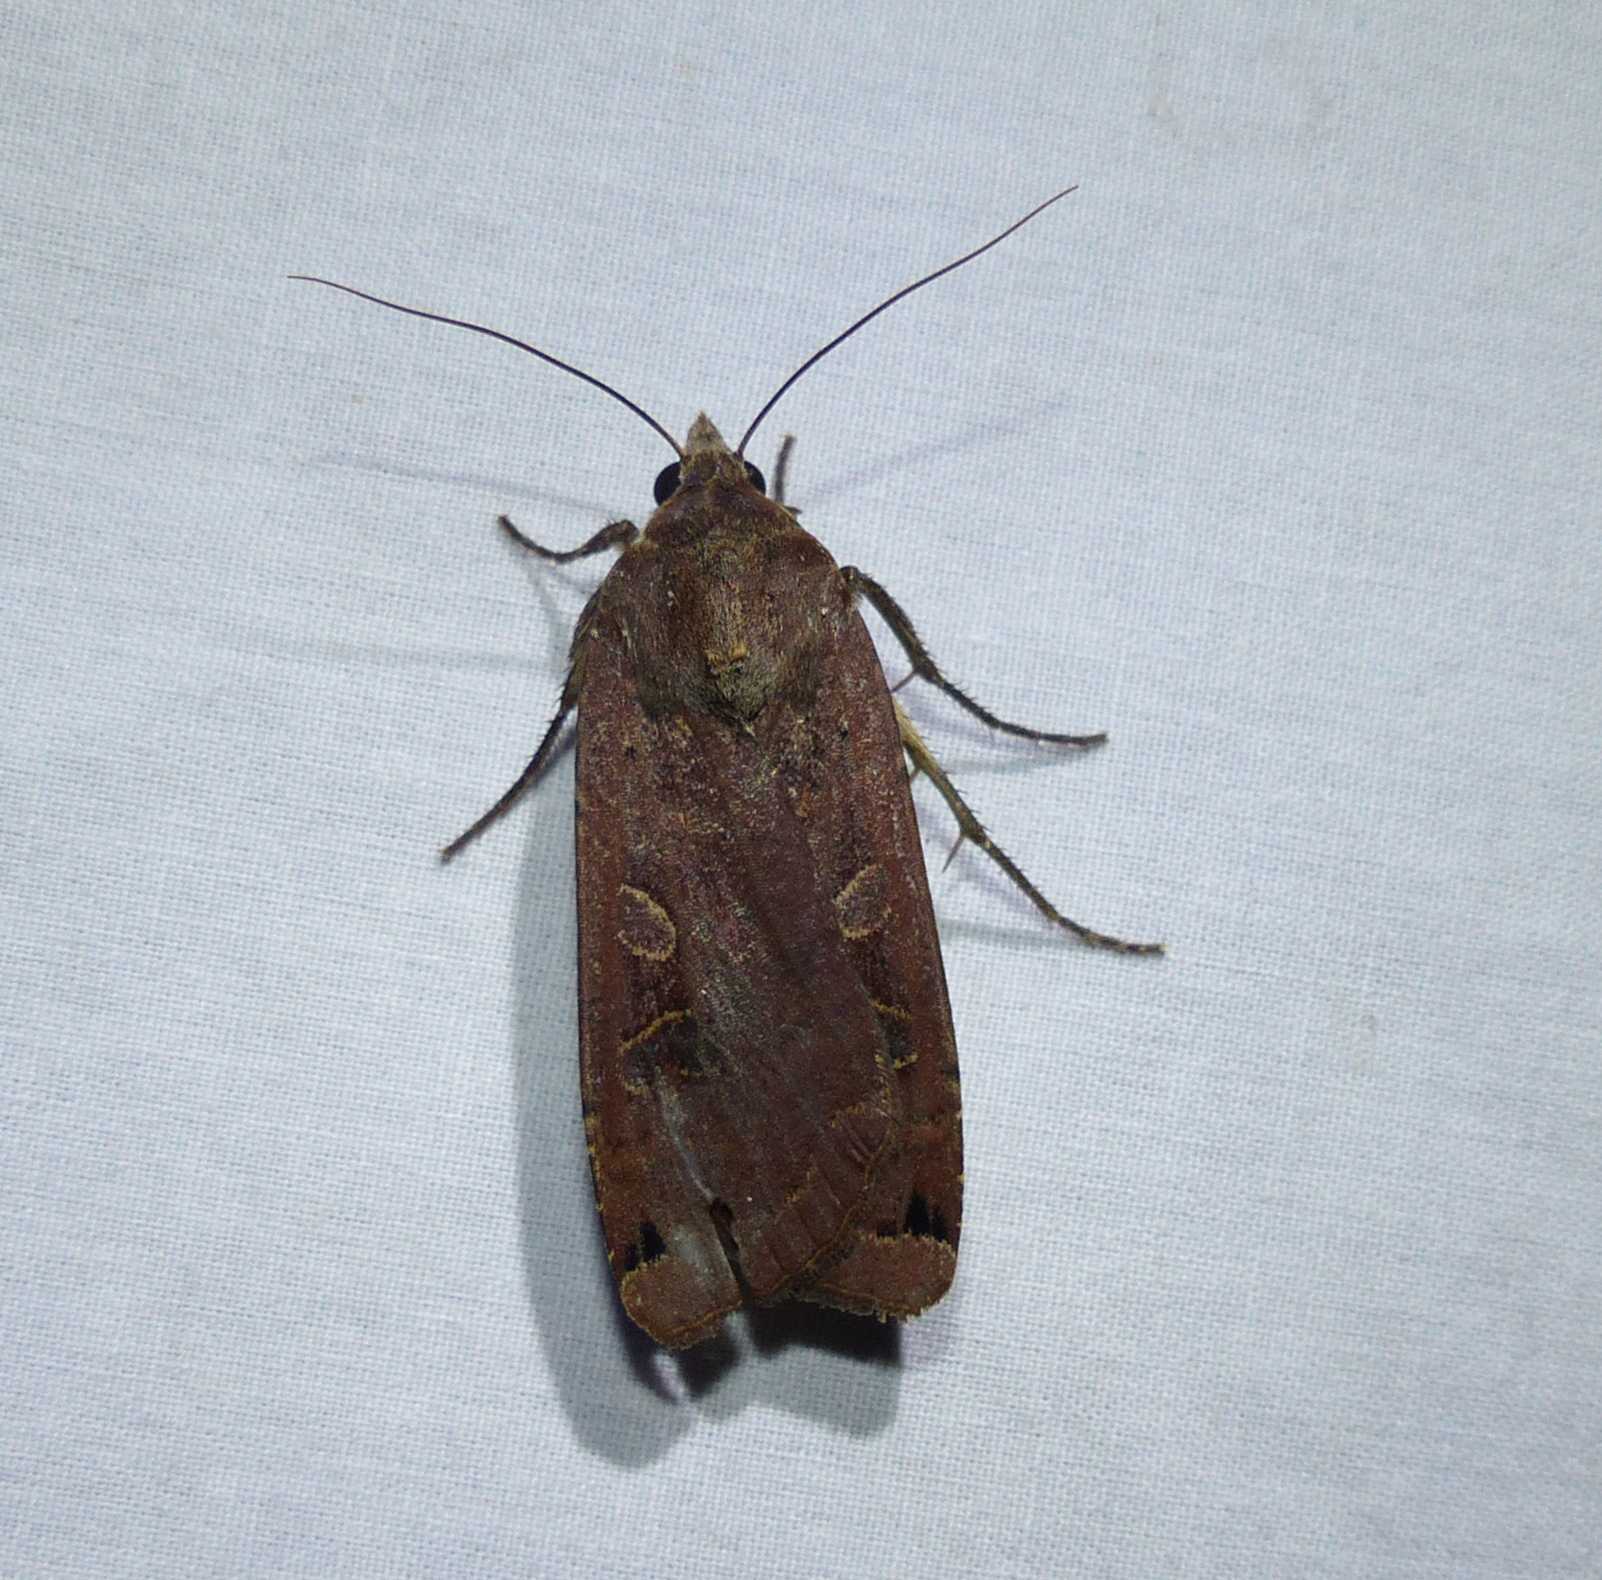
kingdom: Animalia
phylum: Arthropoda
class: Insecta
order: Lepidoptera
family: Noctuidae
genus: Noctua
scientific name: Noctua pronuba
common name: Large yellow underwing
